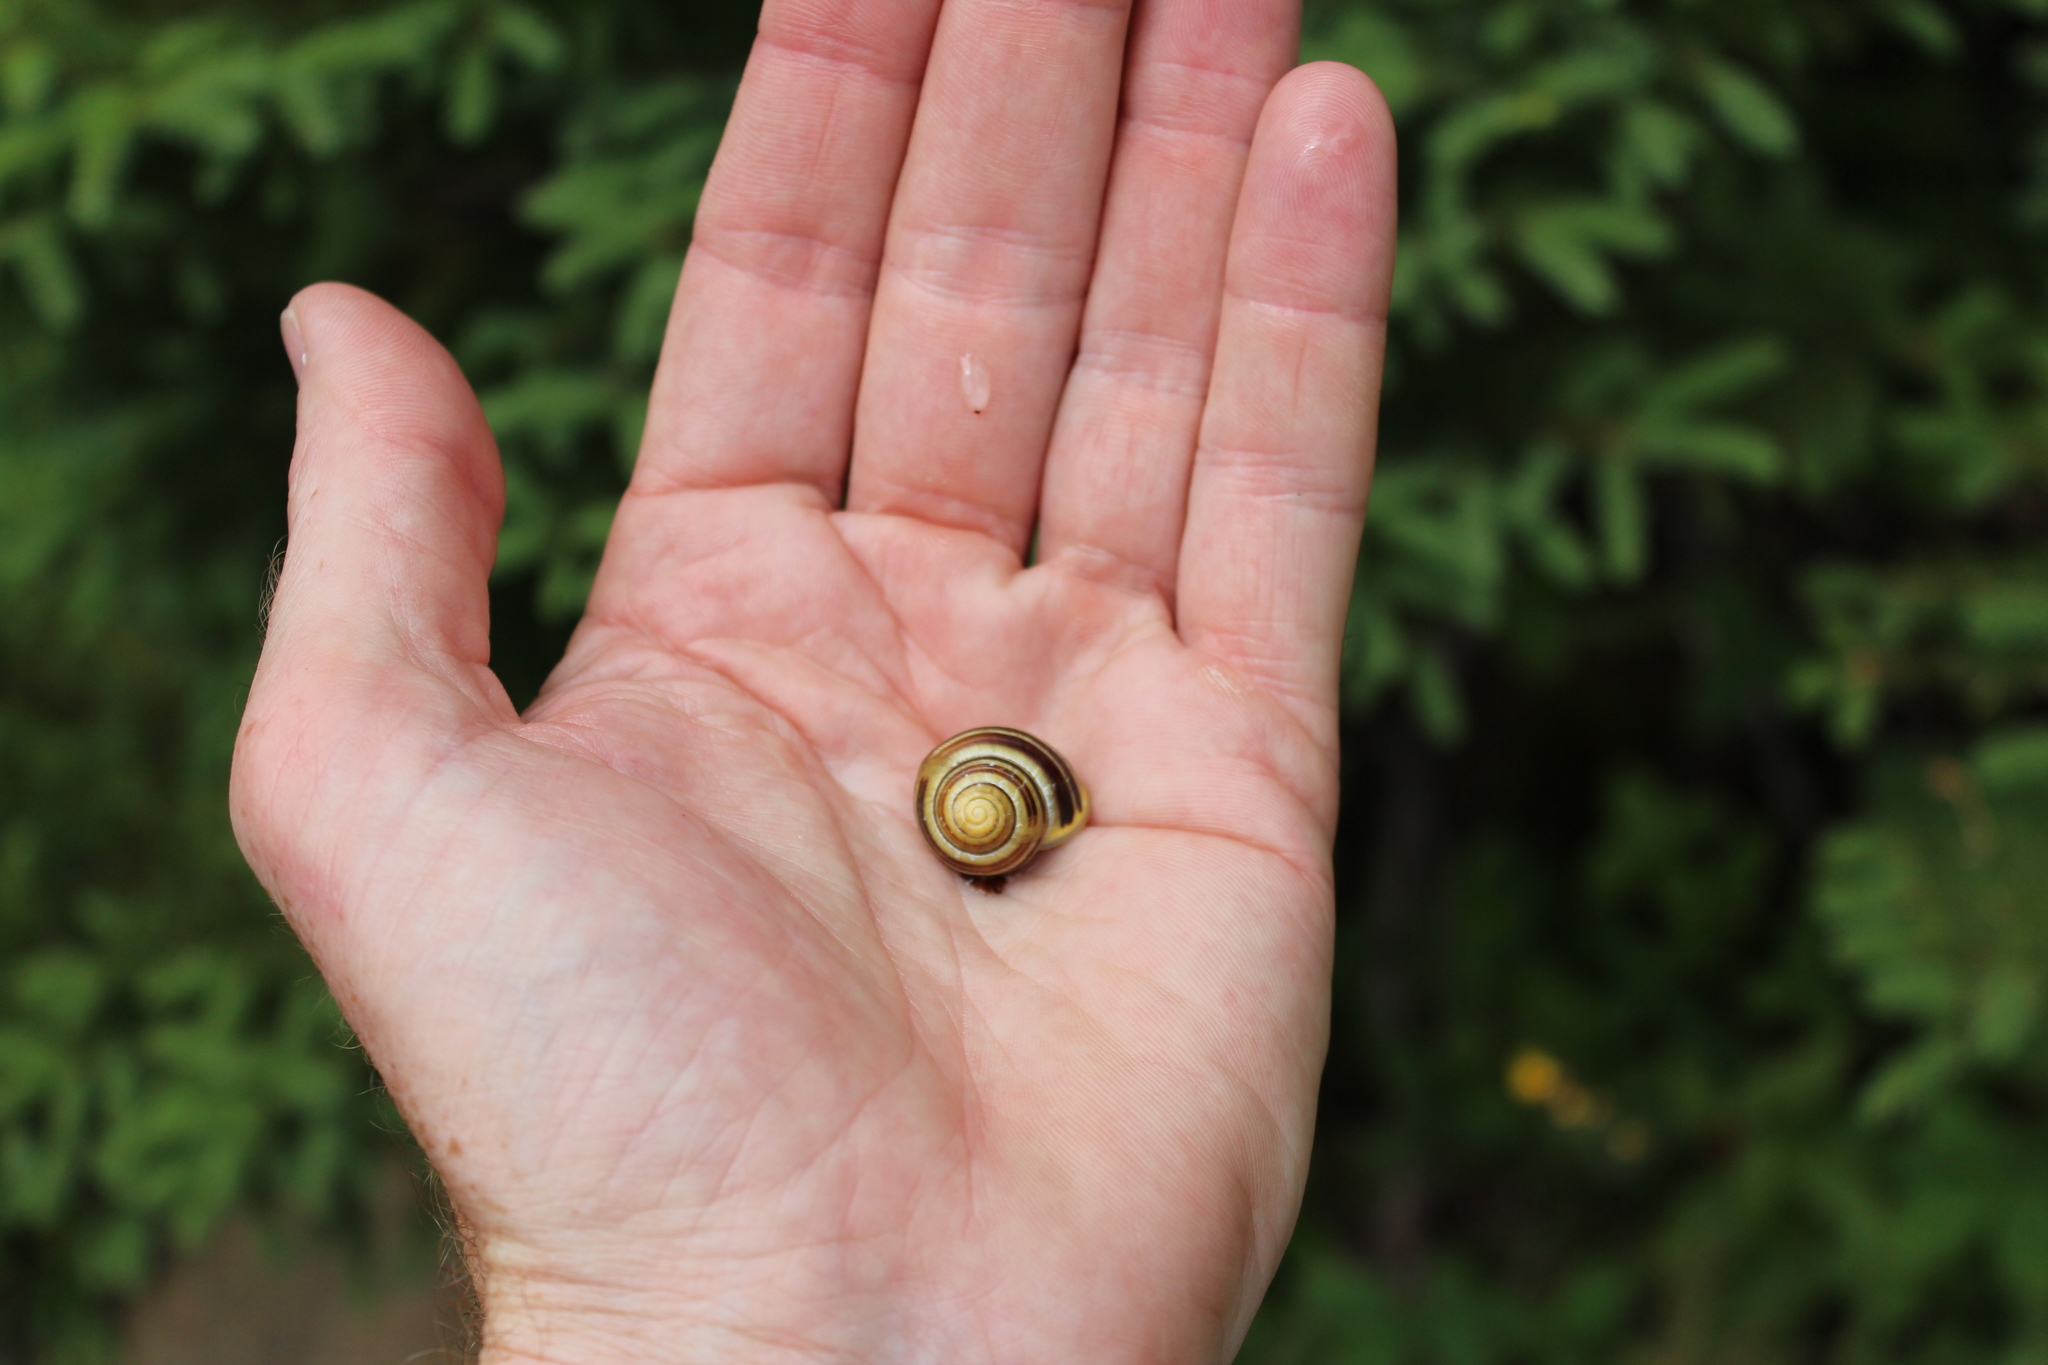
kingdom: Animalia
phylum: Mollusca
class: Gastropoda
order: Stylommatophora
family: Helicidae
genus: Cepaea
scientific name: Cepaea hortensis
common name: White-lip gardensnail
